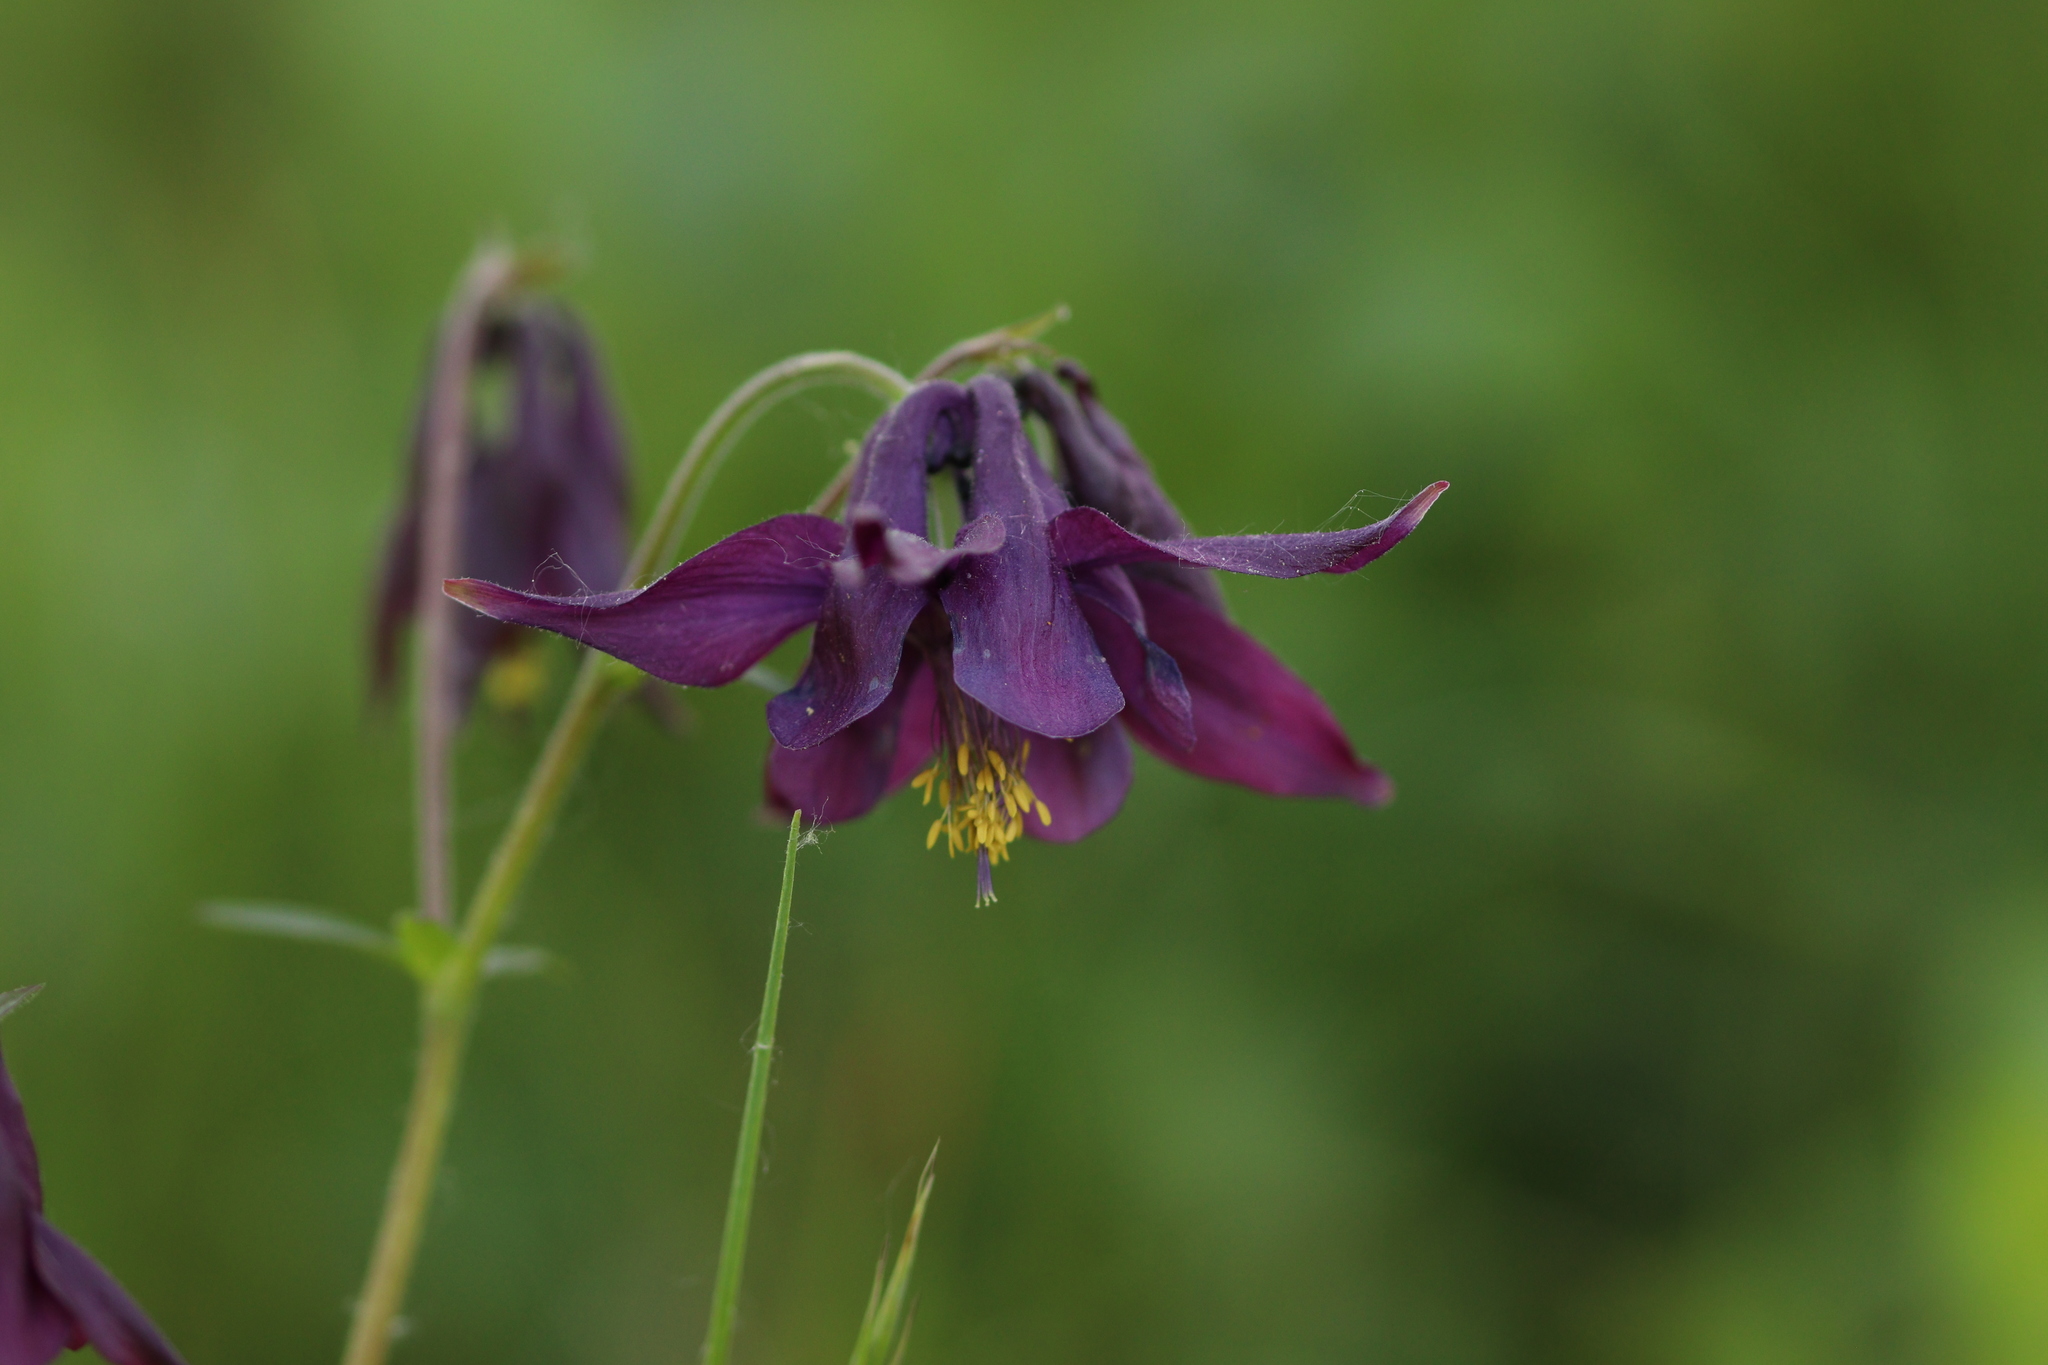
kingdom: Plantae
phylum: Tracheophyta
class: Magnoliopsida
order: Ranunculales
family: Ranunculaceae
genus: Aquilegia
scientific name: Aquilegia atrata
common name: Dark columbine
